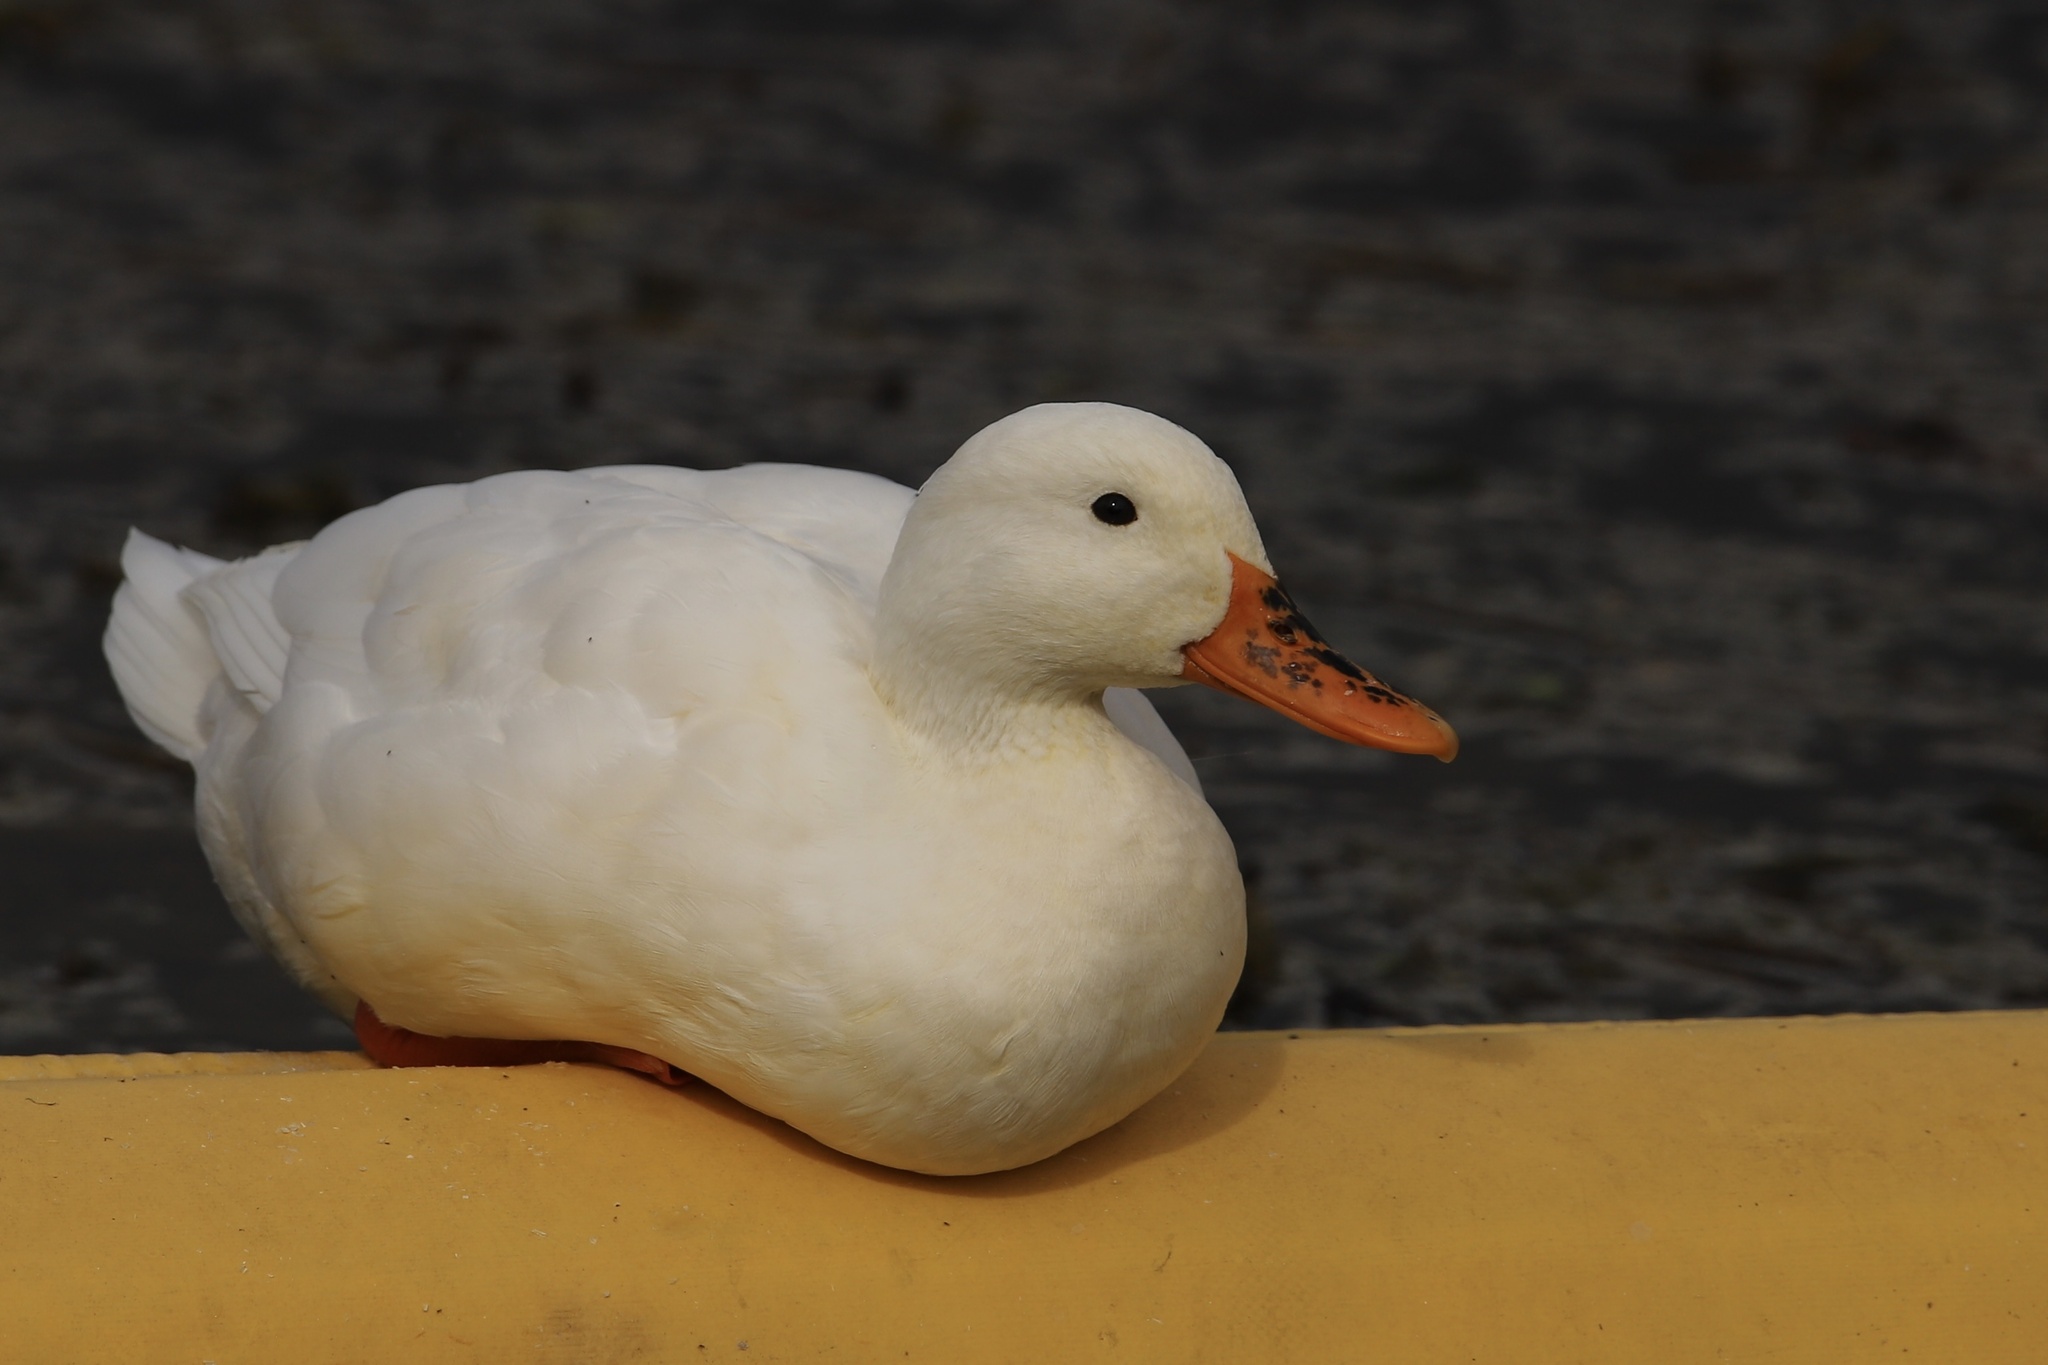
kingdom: Animalia
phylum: Chordata
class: Aves
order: Anseriformes
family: Anatidae
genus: Anas
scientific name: Anas platyrhynchos
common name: Mallard
